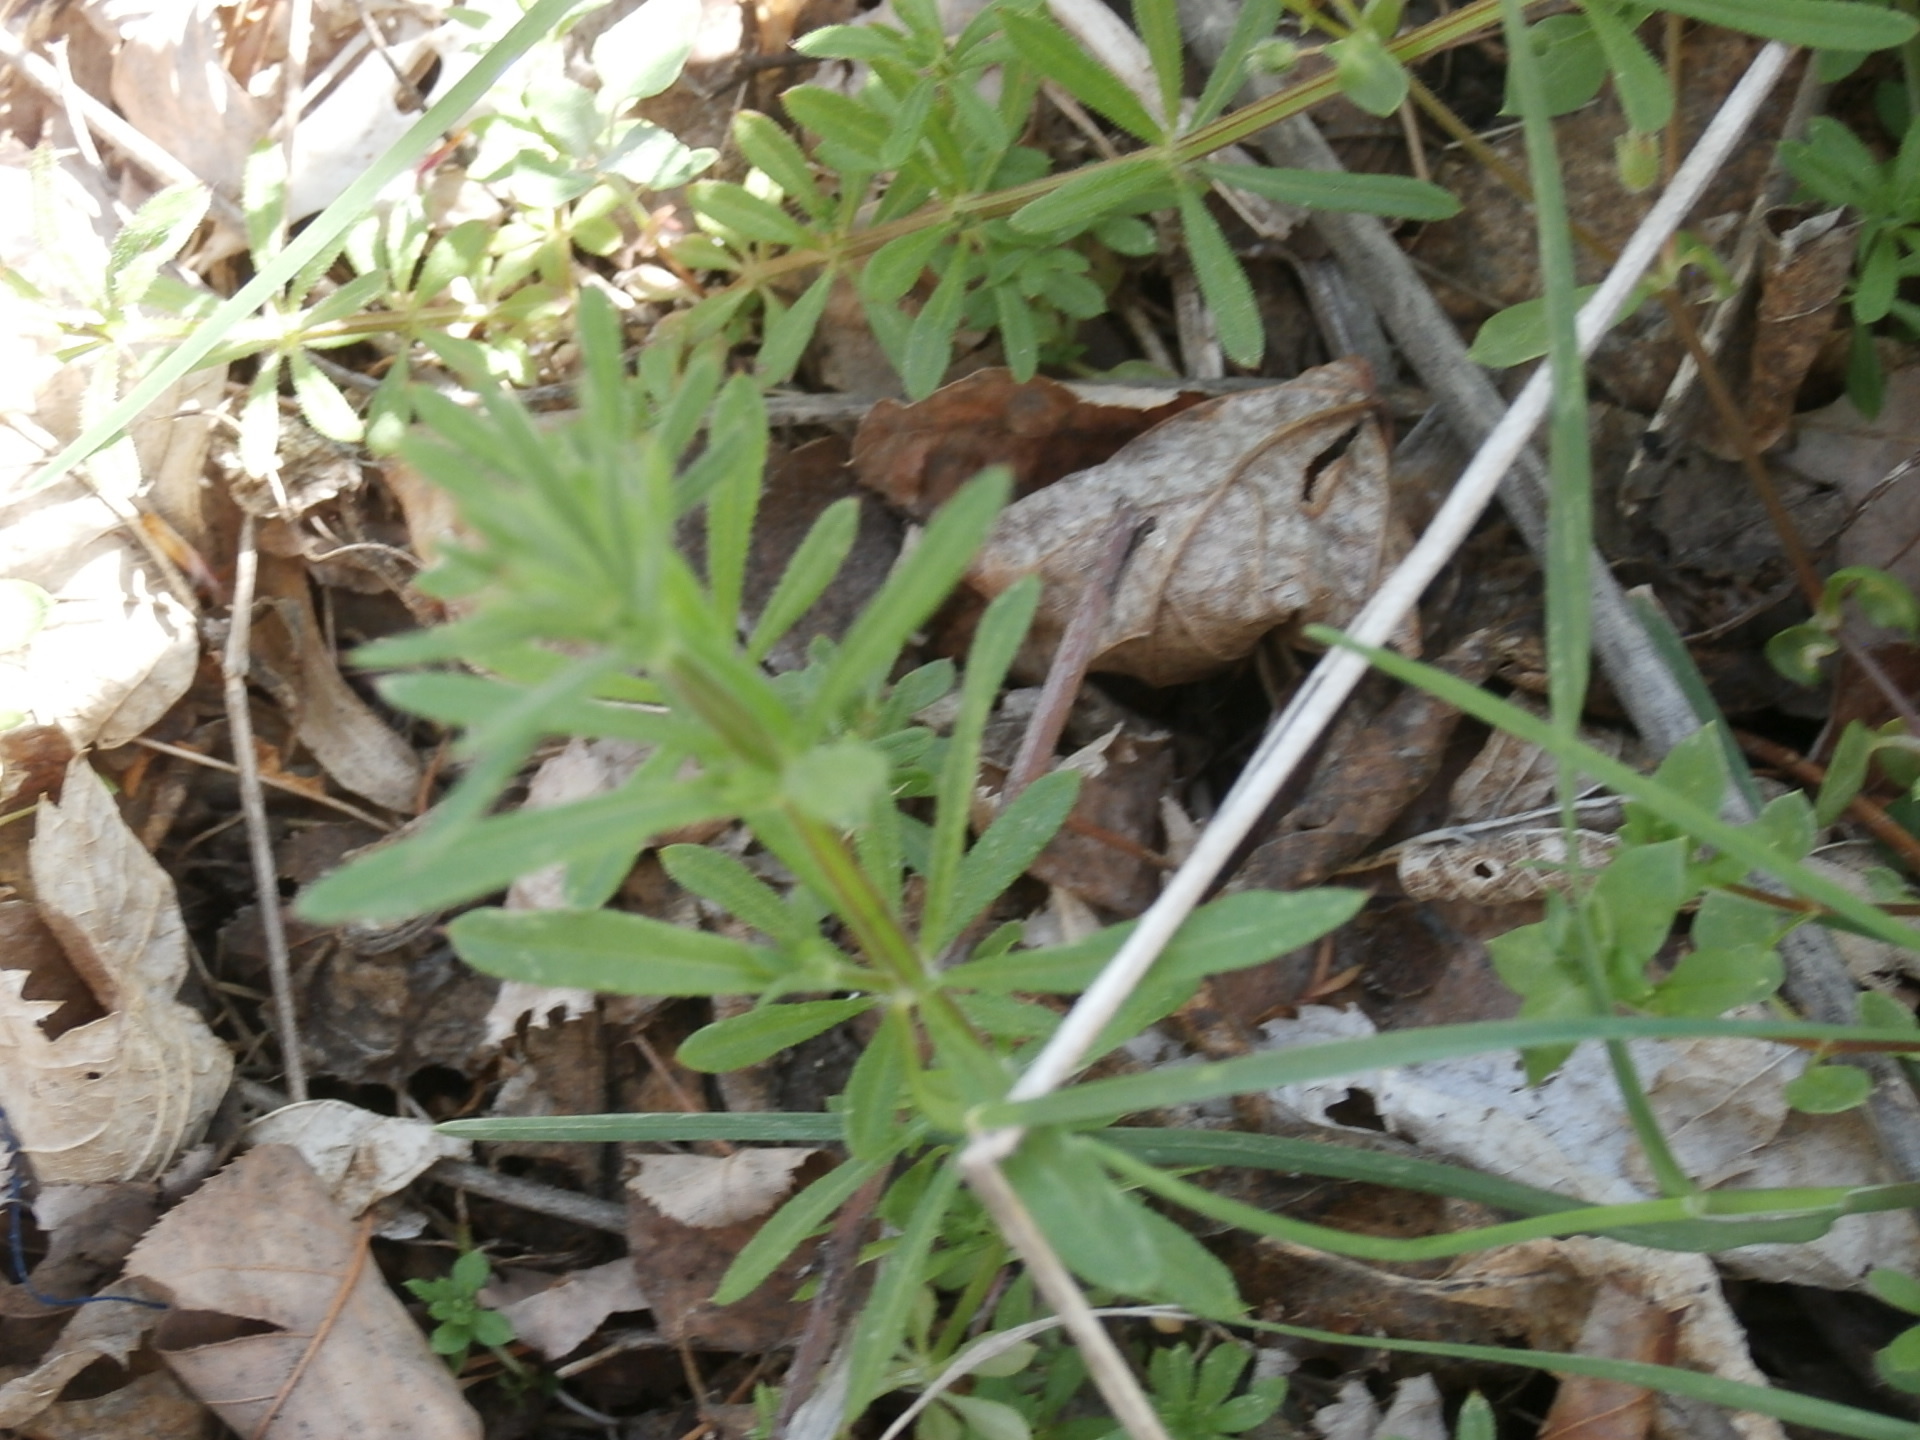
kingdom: Plantae
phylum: Tracheophyta
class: Magnoliopsida
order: Gentianales
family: Rubiaceae
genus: Galium
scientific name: Galium aparine
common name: Cleavers
